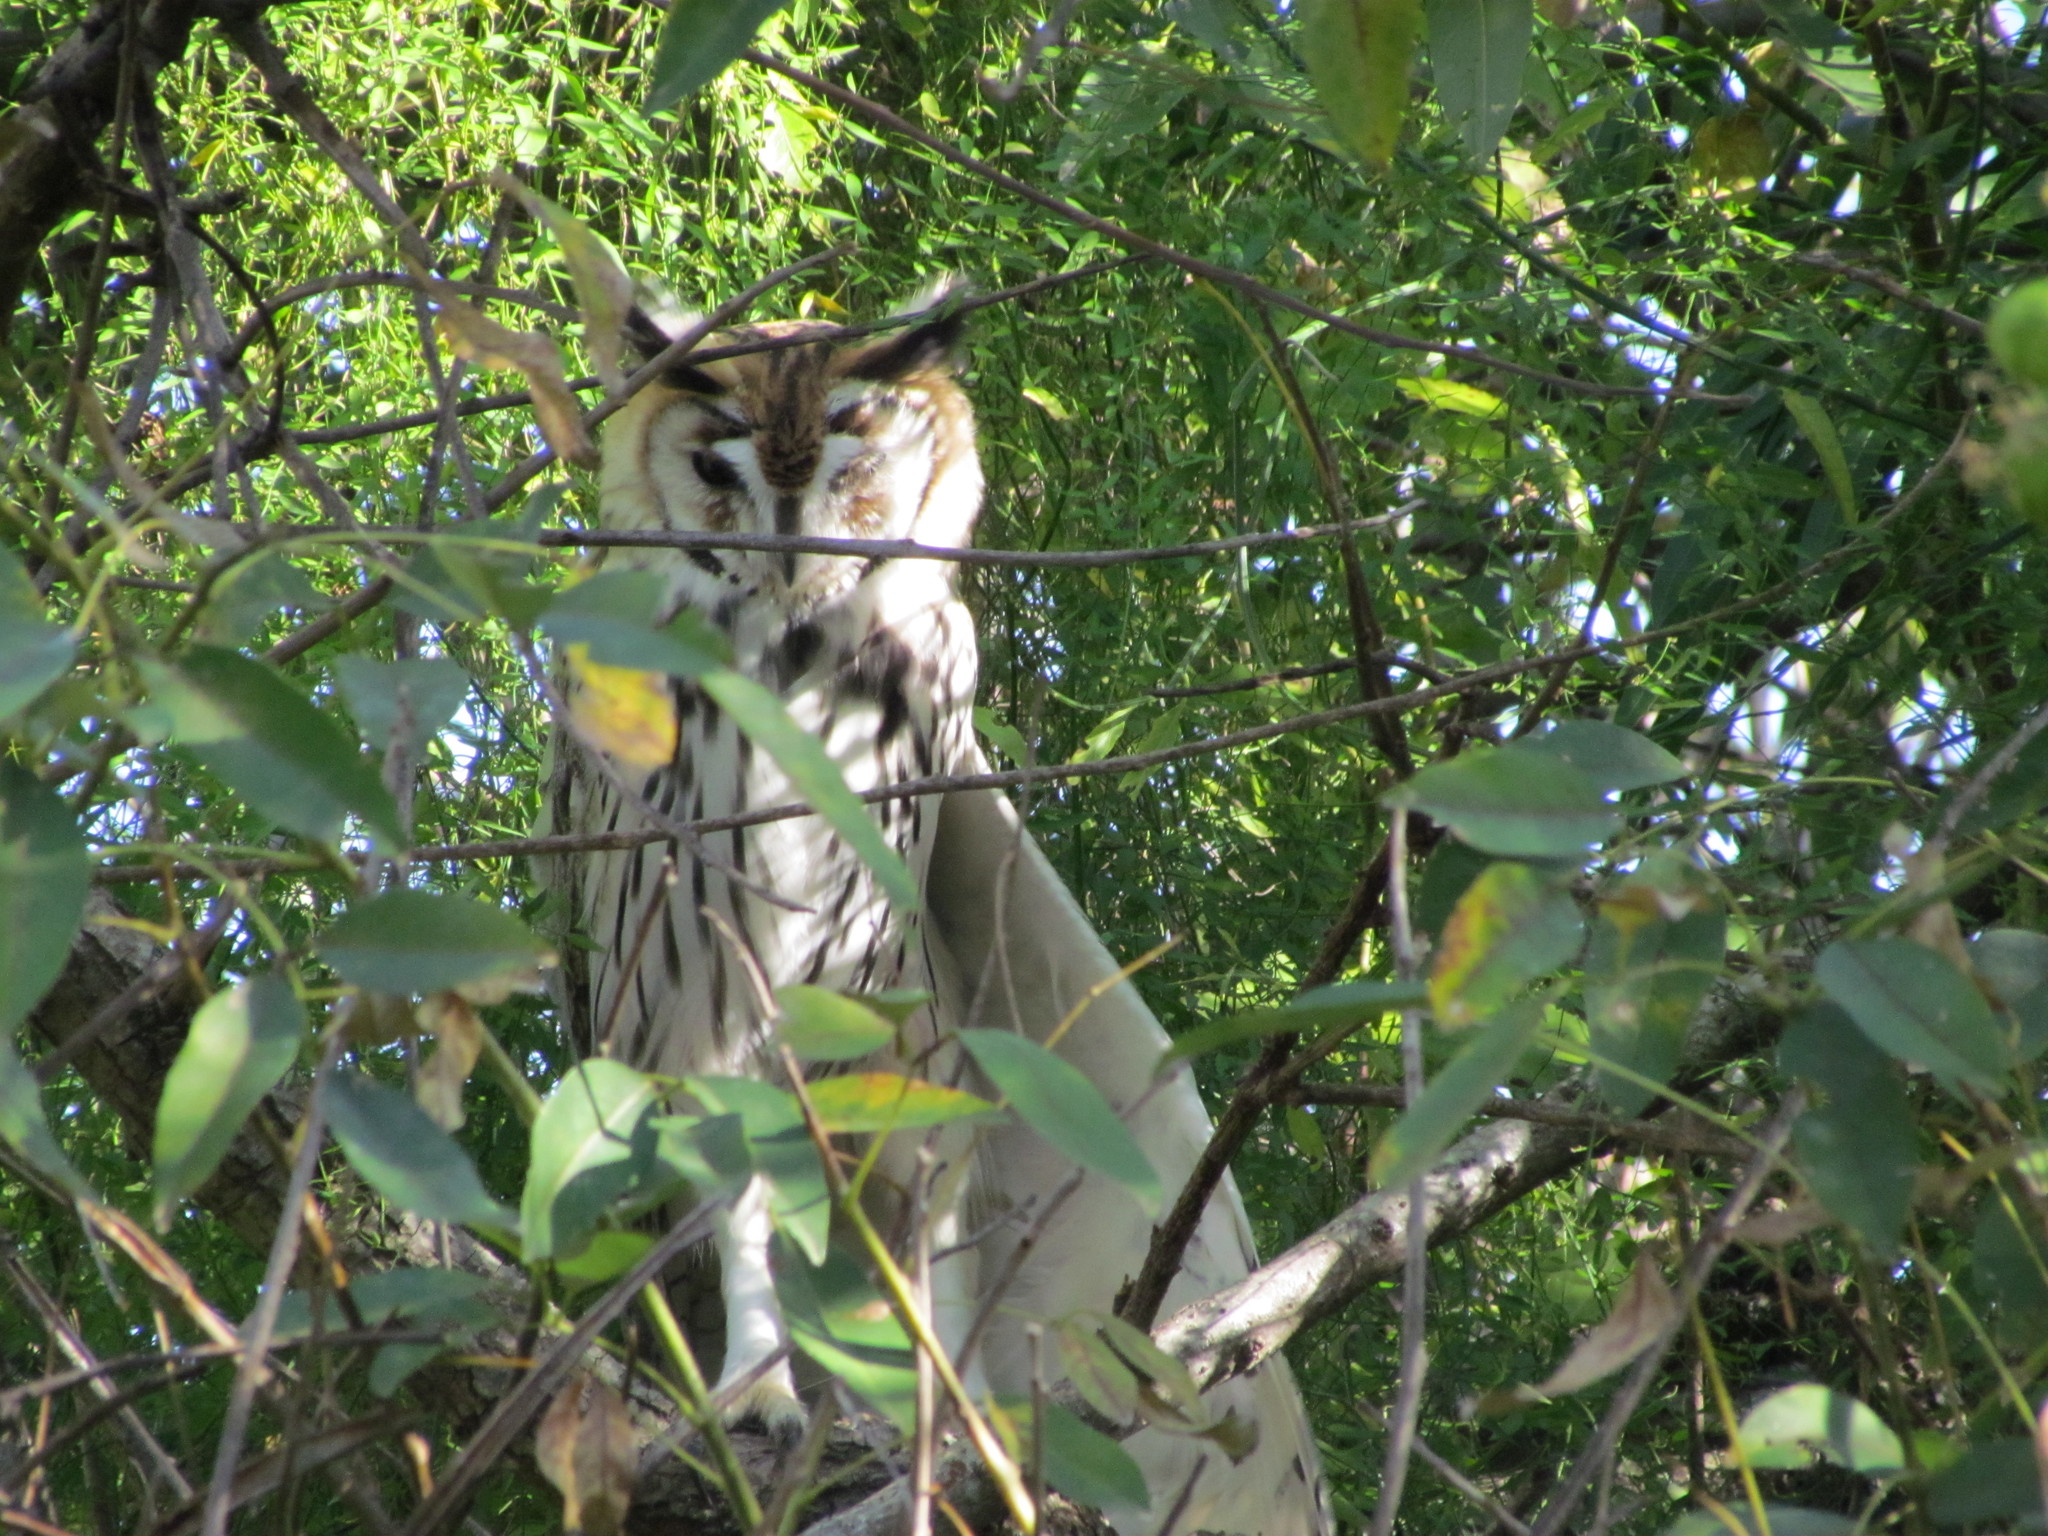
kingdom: Animalia
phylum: Chordata
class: Aves
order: Strigiformes
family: Strigidae
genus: Pseudoscops
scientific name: Pseudoscops clamator
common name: Striped owl
